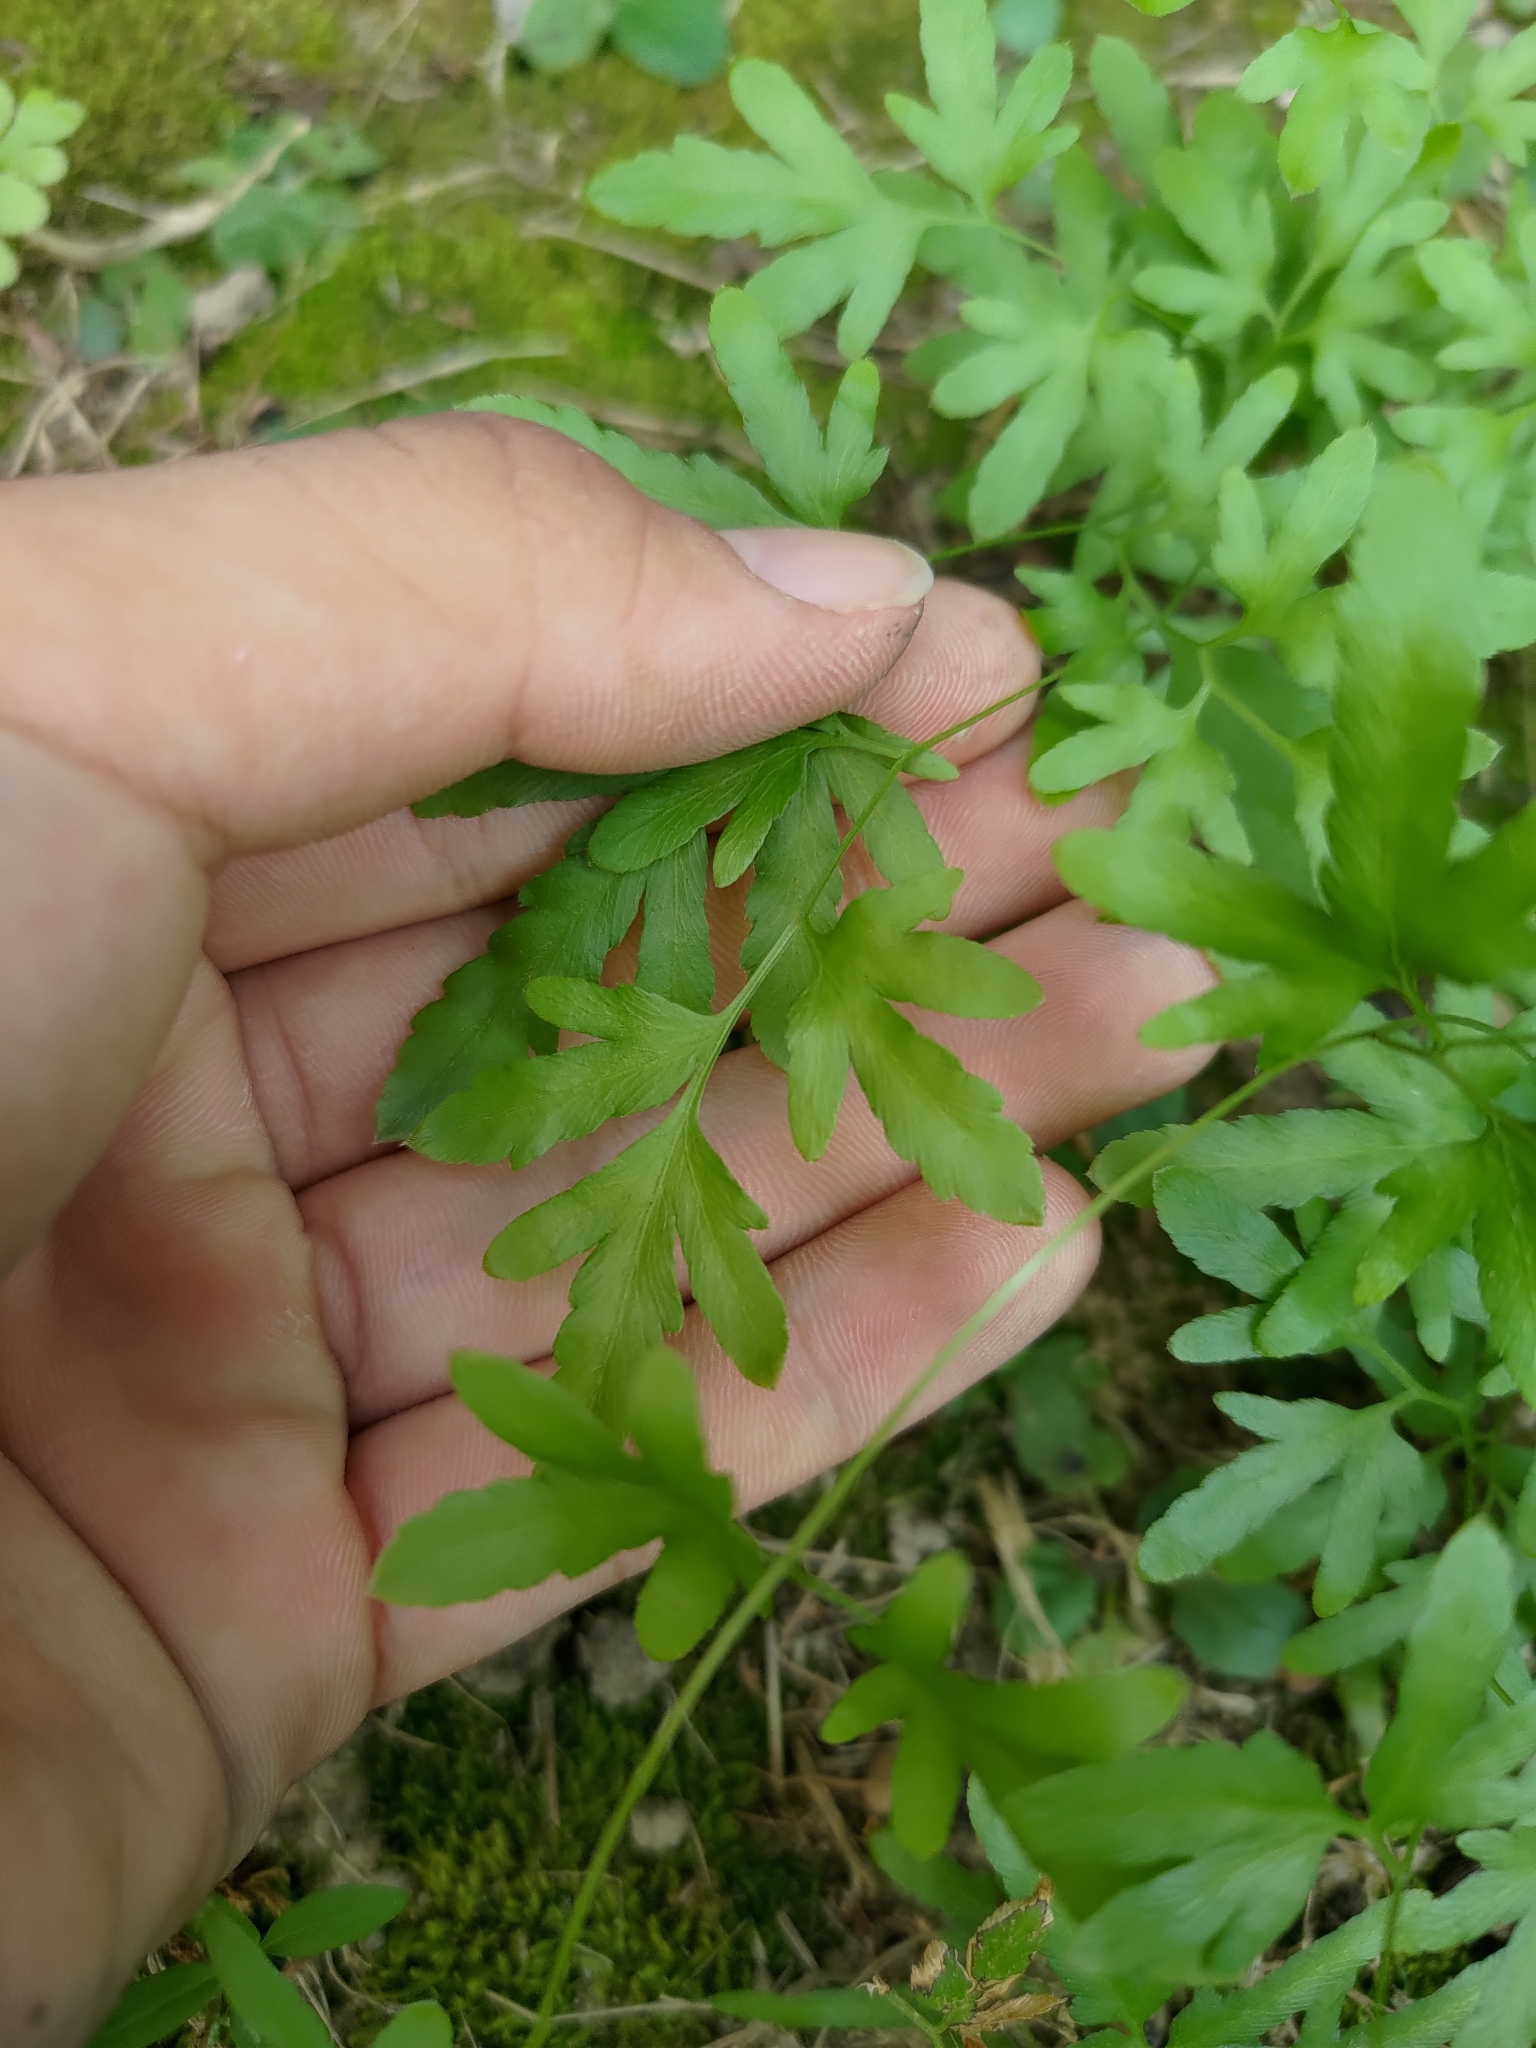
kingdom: Plantae
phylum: Tracheophyta
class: Polypodiopsida
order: Schizaeales
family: Lygodiaceae
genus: Lygodium
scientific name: Lygodium japonicum
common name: Japanese climbing fern
